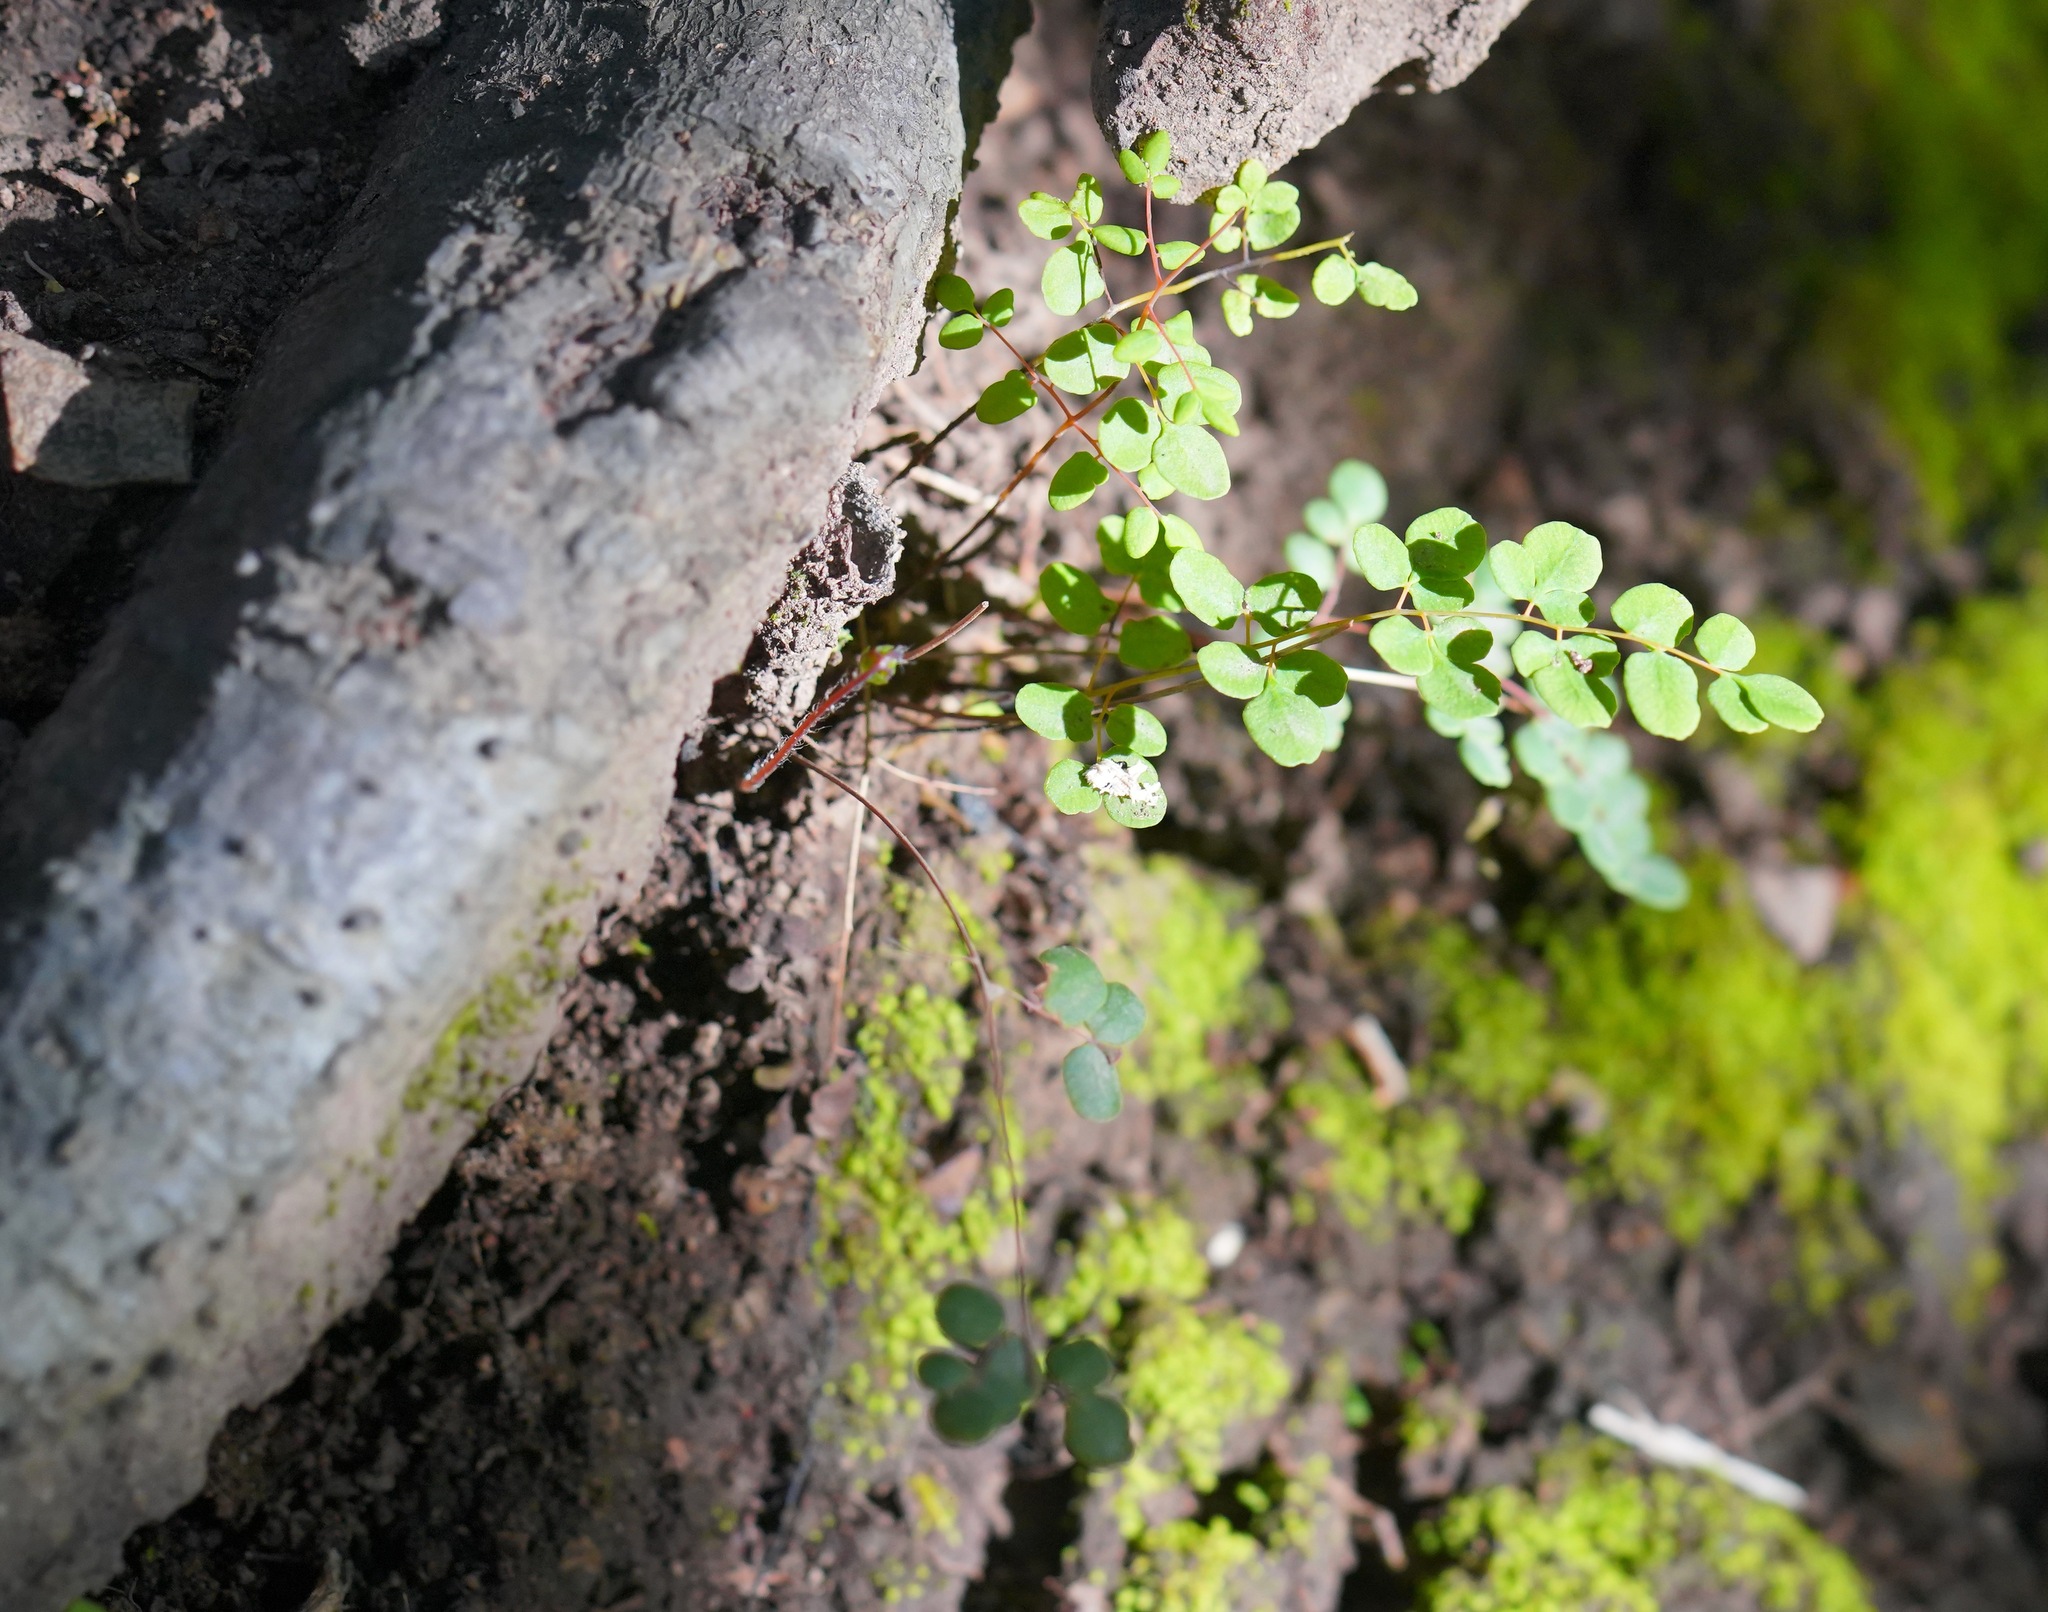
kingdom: Plantae
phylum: Tracheophyta
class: Polypodiopsida
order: Polypodiales
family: Pteridaceae
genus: Pellaea
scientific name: Pellaea andromedifolia
